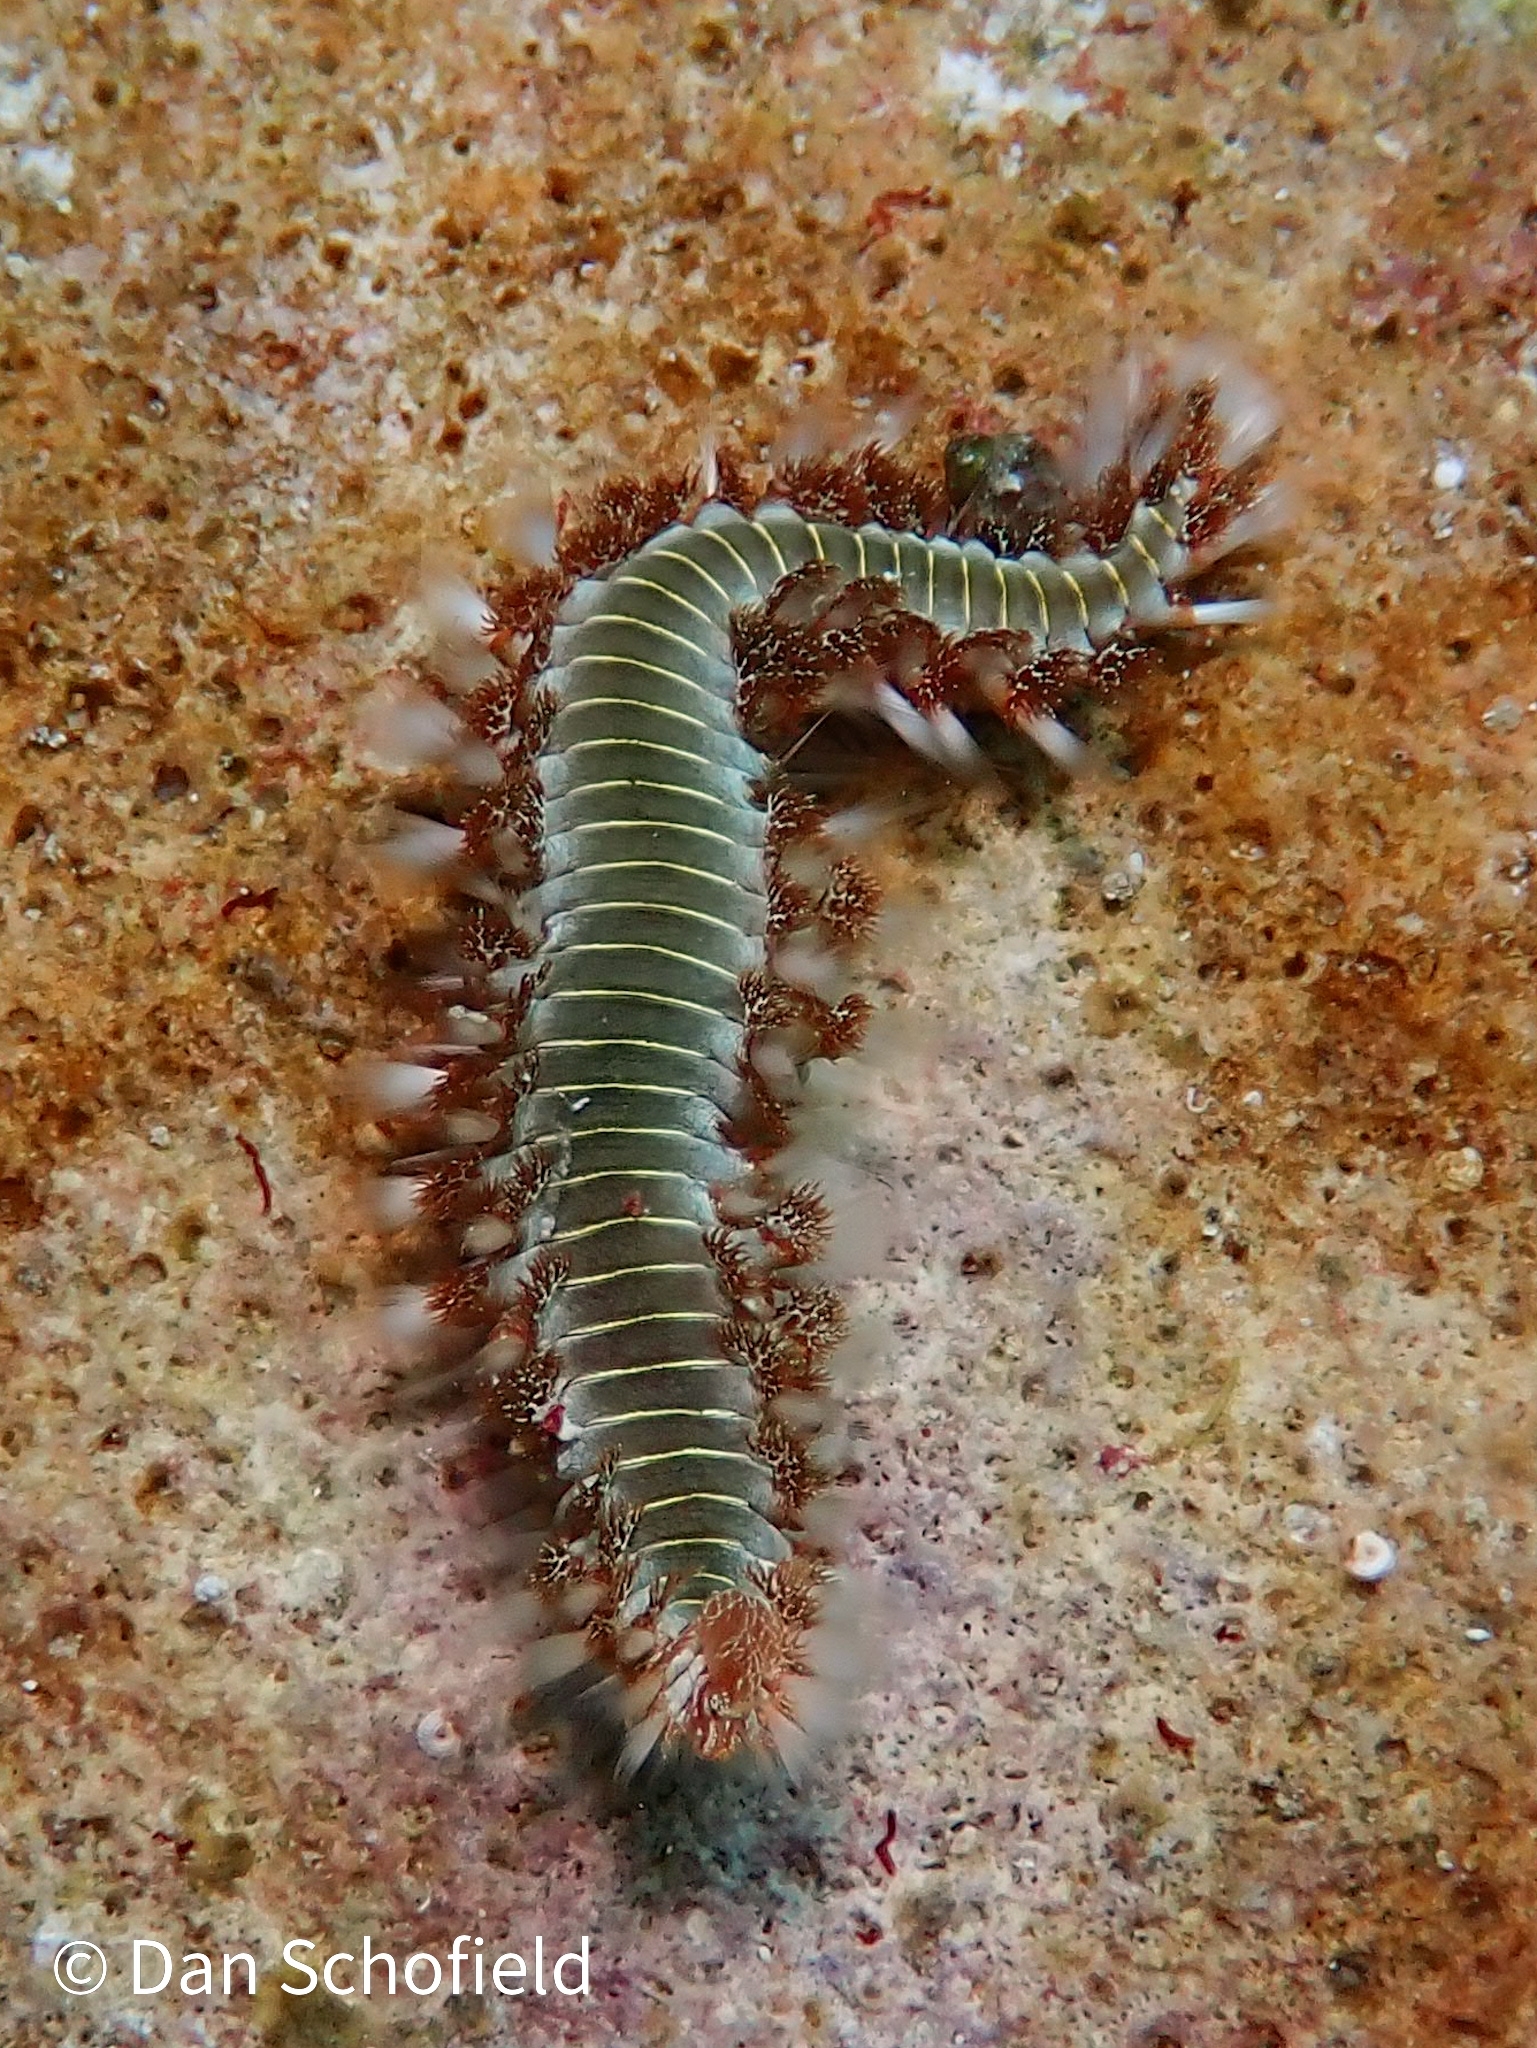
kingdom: Animalia
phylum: Annelida
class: Polychaeta
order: Amphinomida
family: Amphinomidae
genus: Hermodice
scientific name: Hermodice carunculata
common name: Bearded fireworm
